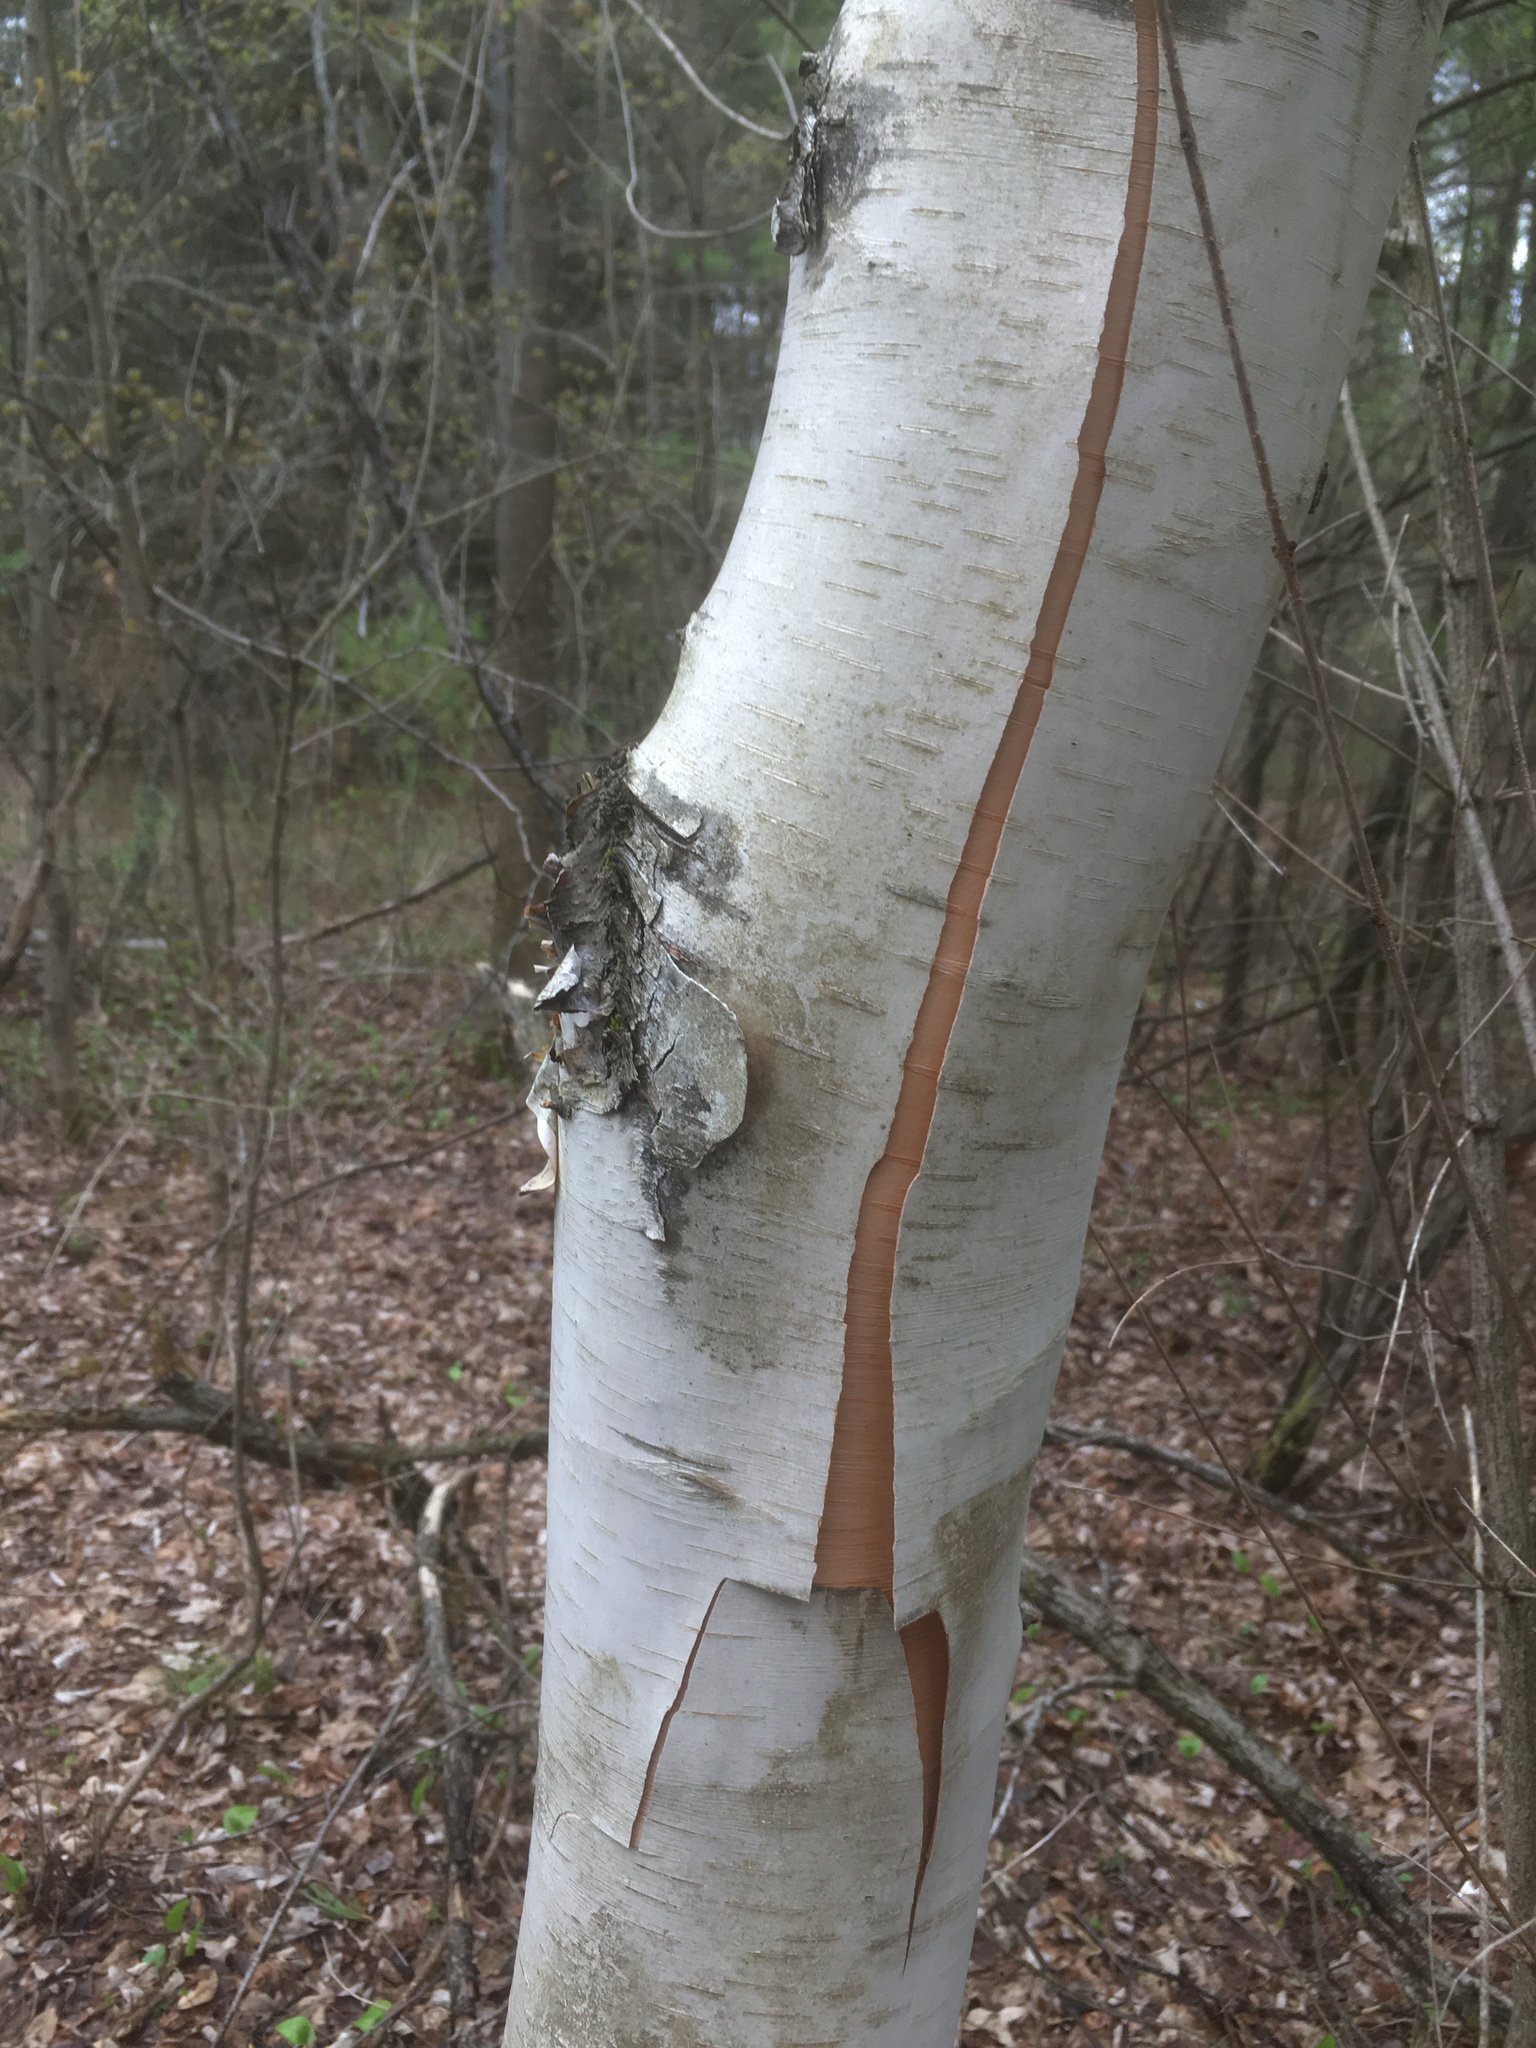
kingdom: Plantae
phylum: Tracheophyta
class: Magnoliopsida
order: Fagales
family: Betulaceae
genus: Betula
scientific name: Betula papyrifera
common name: Paper birch
